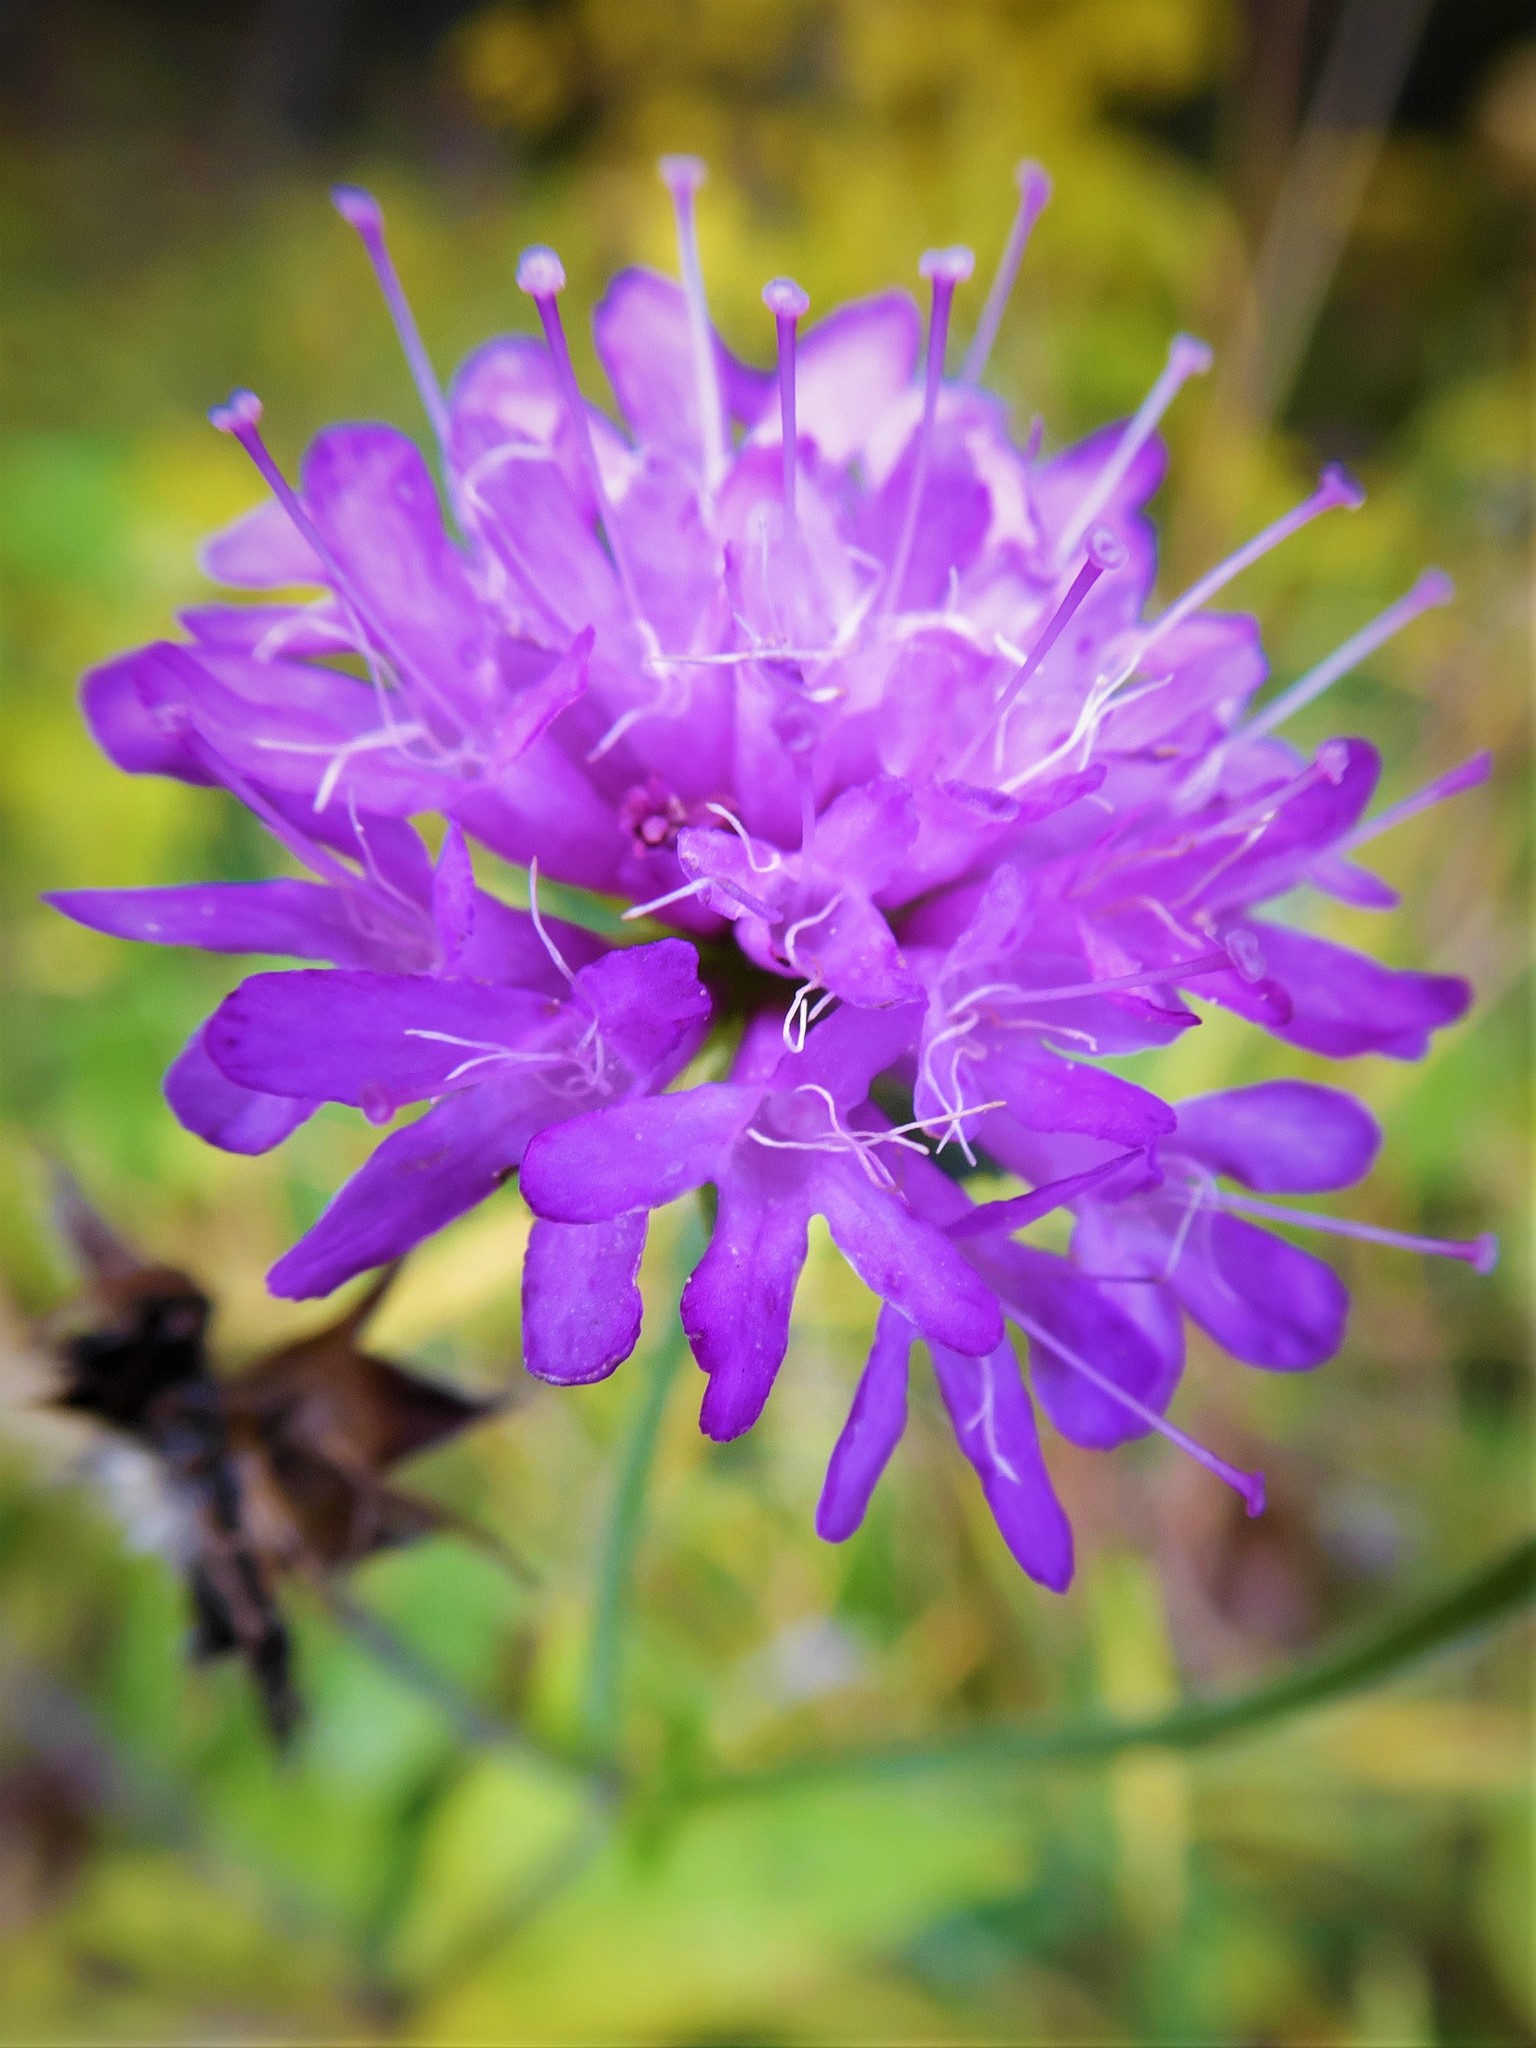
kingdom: Plantae
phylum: Tracheophyta
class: Magnoliopsida
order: Dipsacales
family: Caprifoliaceae
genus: Knautia
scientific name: Knautia dipsacifolia
